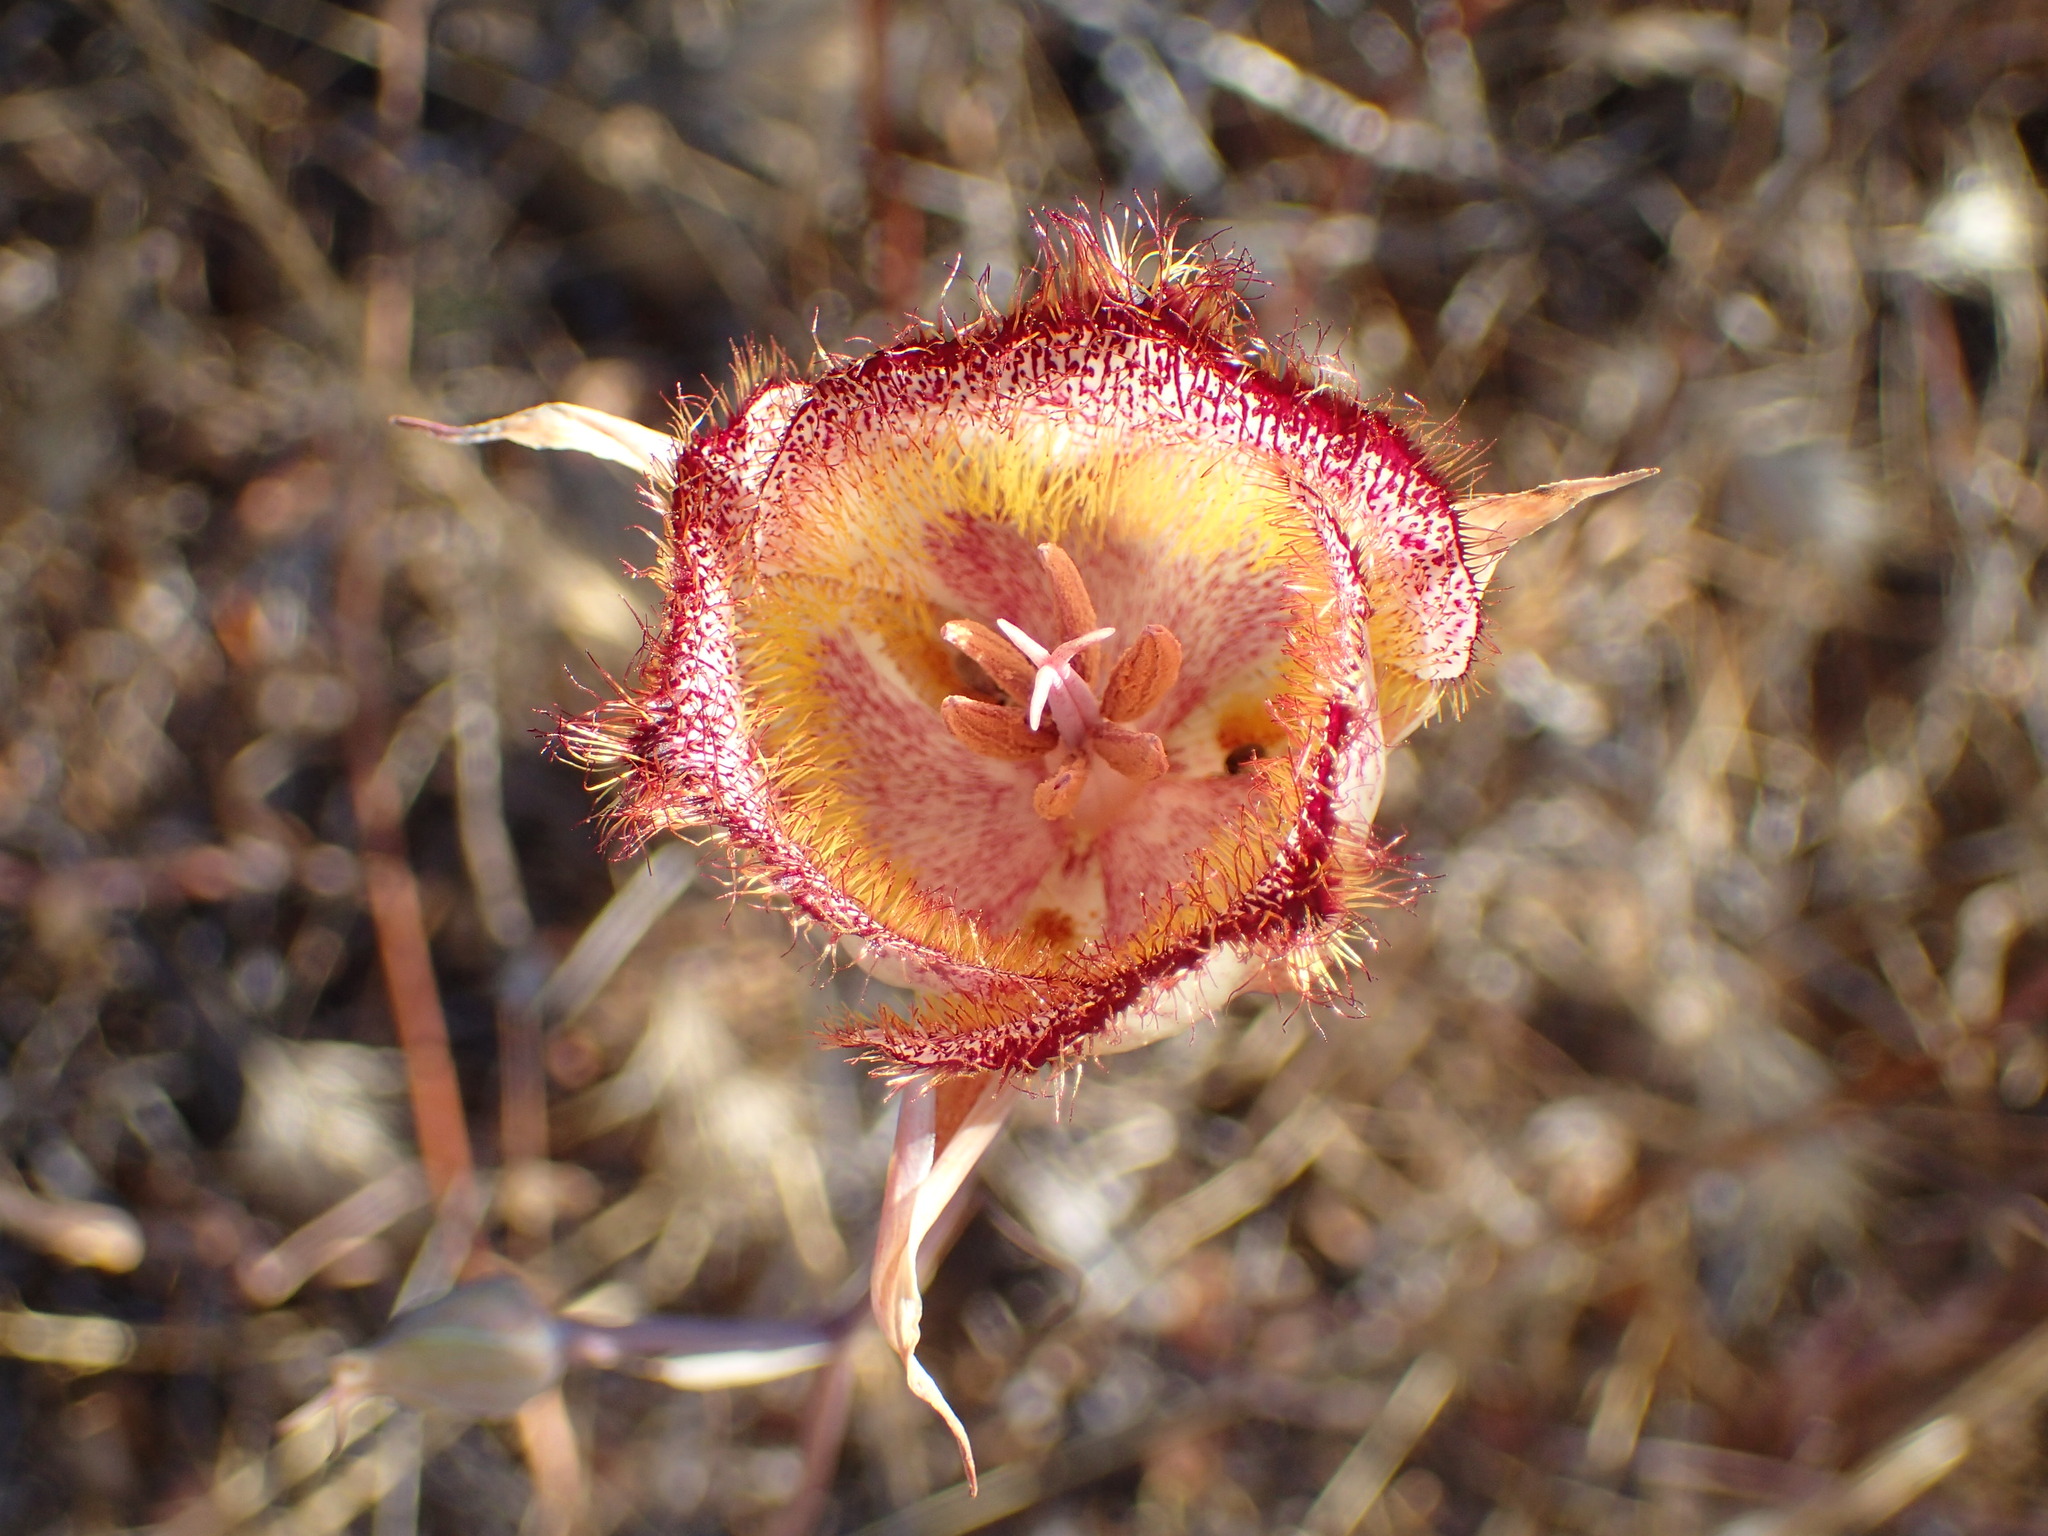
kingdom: Plantae
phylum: Tracheophyta
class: Liliopsida
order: Liliales
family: Liliaceae
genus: Calochortus
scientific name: Calochortus fimbriatus
